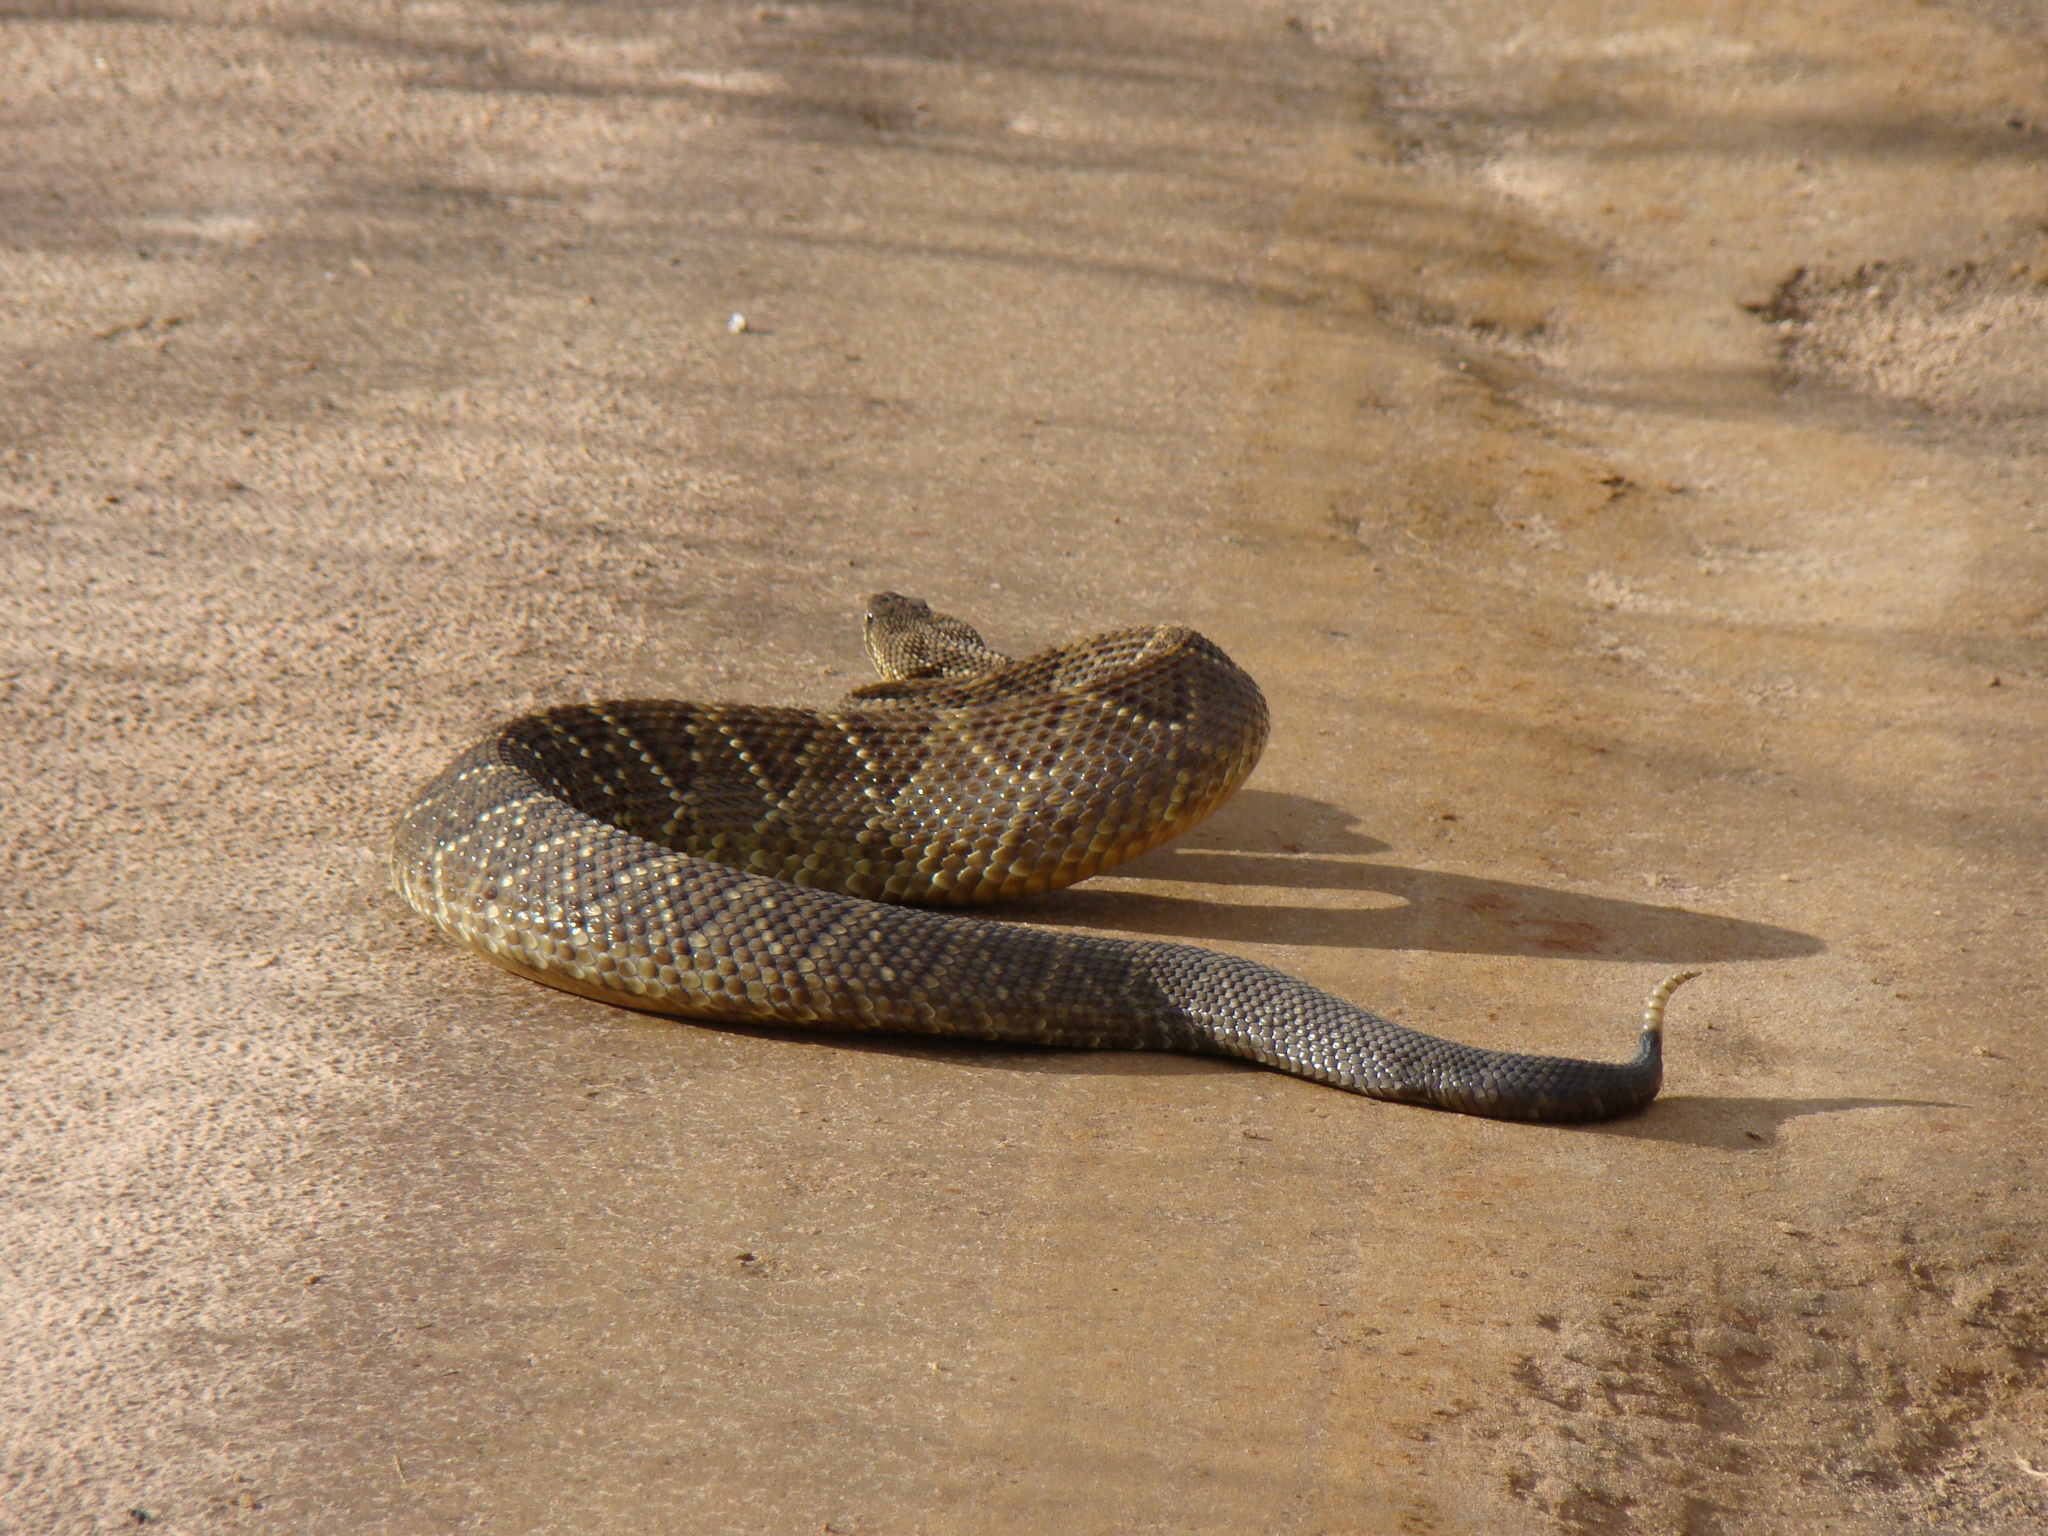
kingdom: Animalia
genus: Crotalus
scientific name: Crotalus durissus
